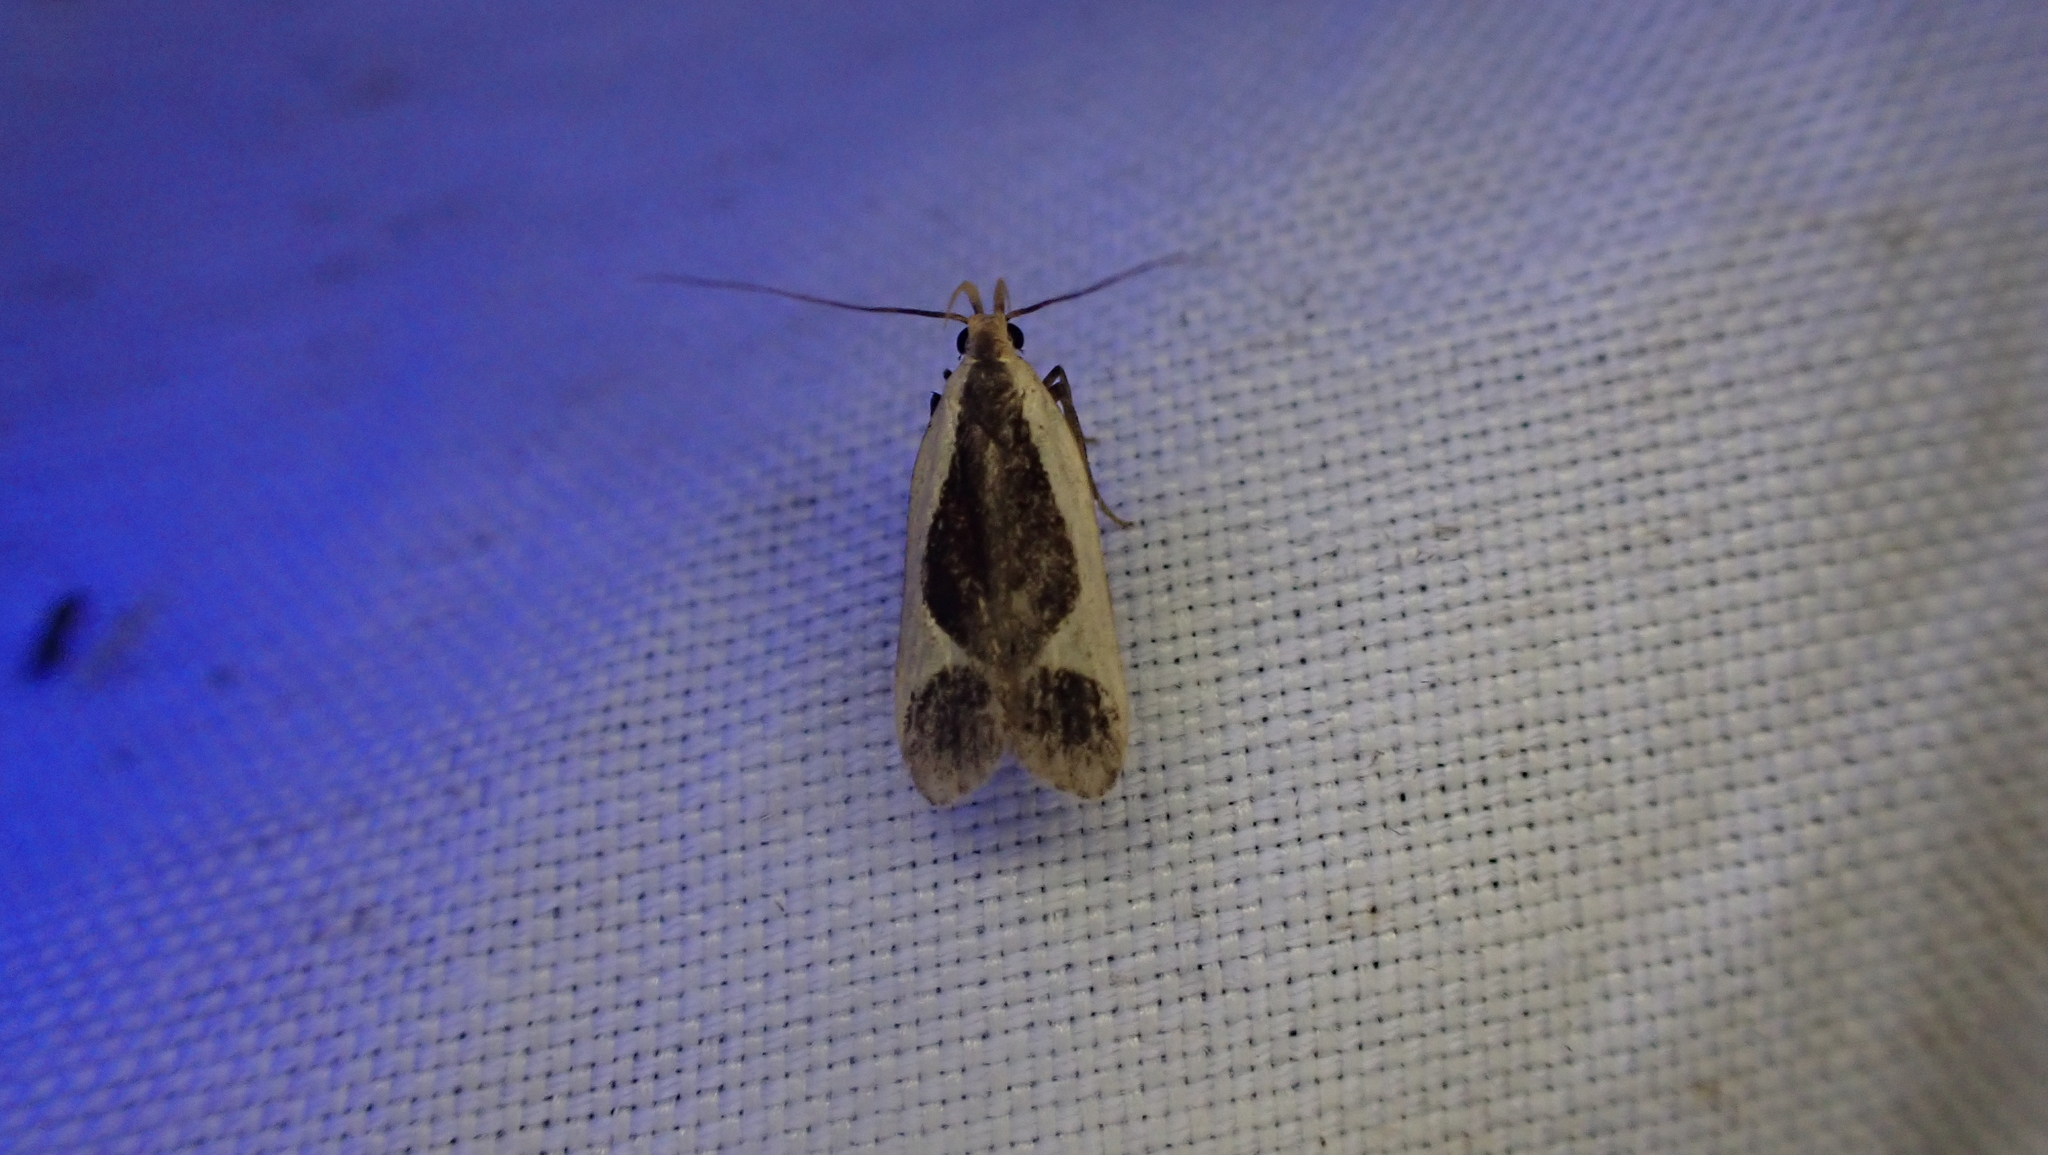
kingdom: Animalia
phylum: Arthropoda
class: Insecta
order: Lepidoptera
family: Gelechiidae
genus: Dichomeris
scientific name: Dichomeris flavocostella
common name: Cream-edged dichomeris moth
